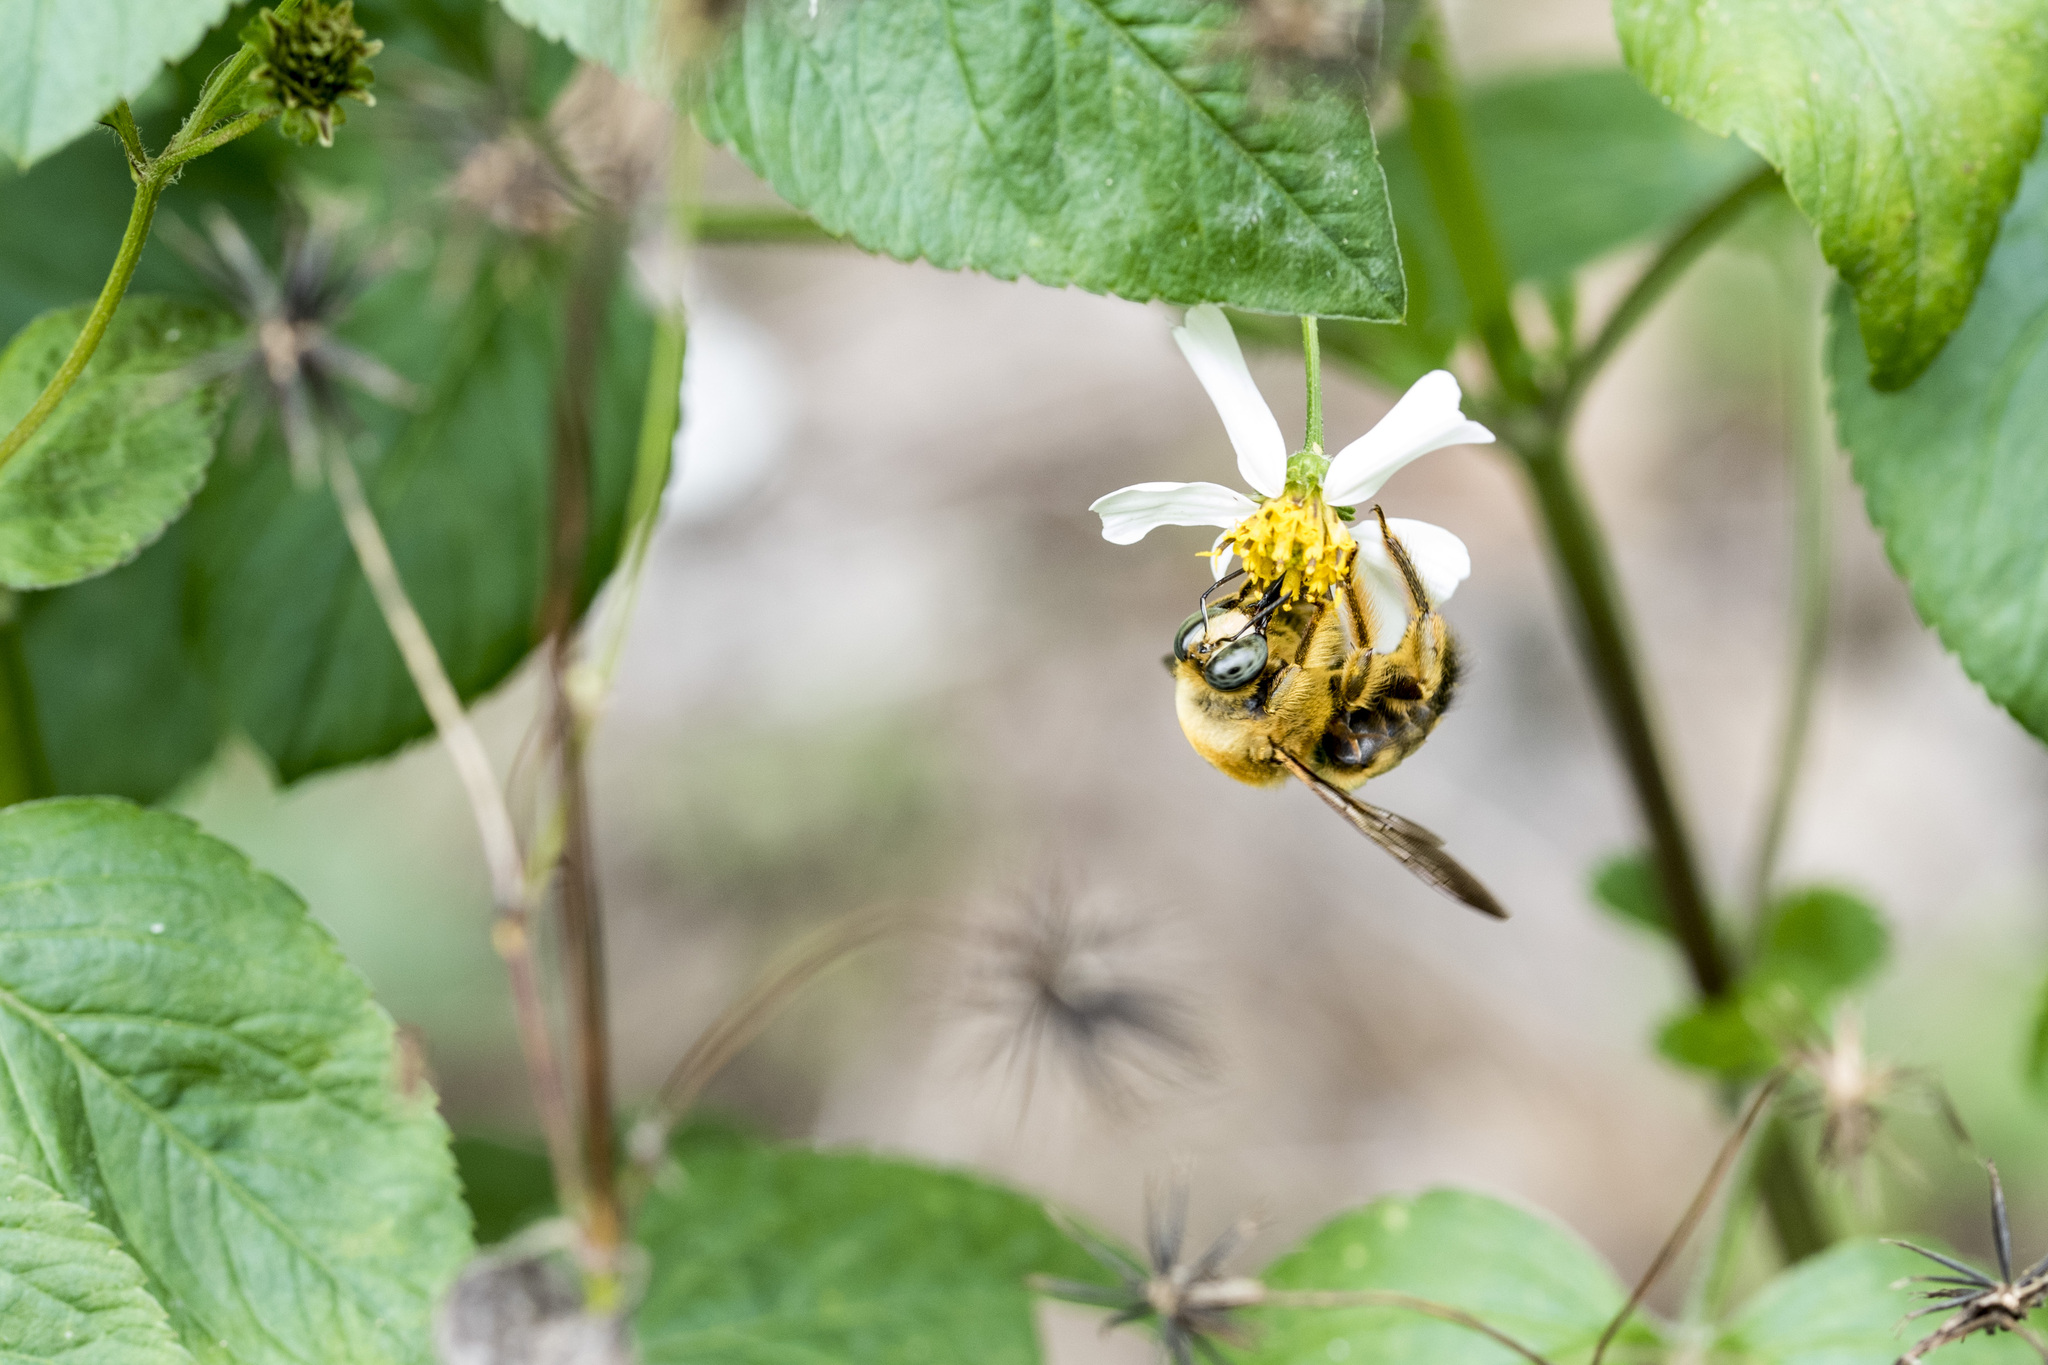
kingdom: Animalia
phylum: Arthropoda
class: Insecta
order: Hymenoptera
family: Apidae
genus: Xylocopa
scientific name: Xylocopa dejeanii
